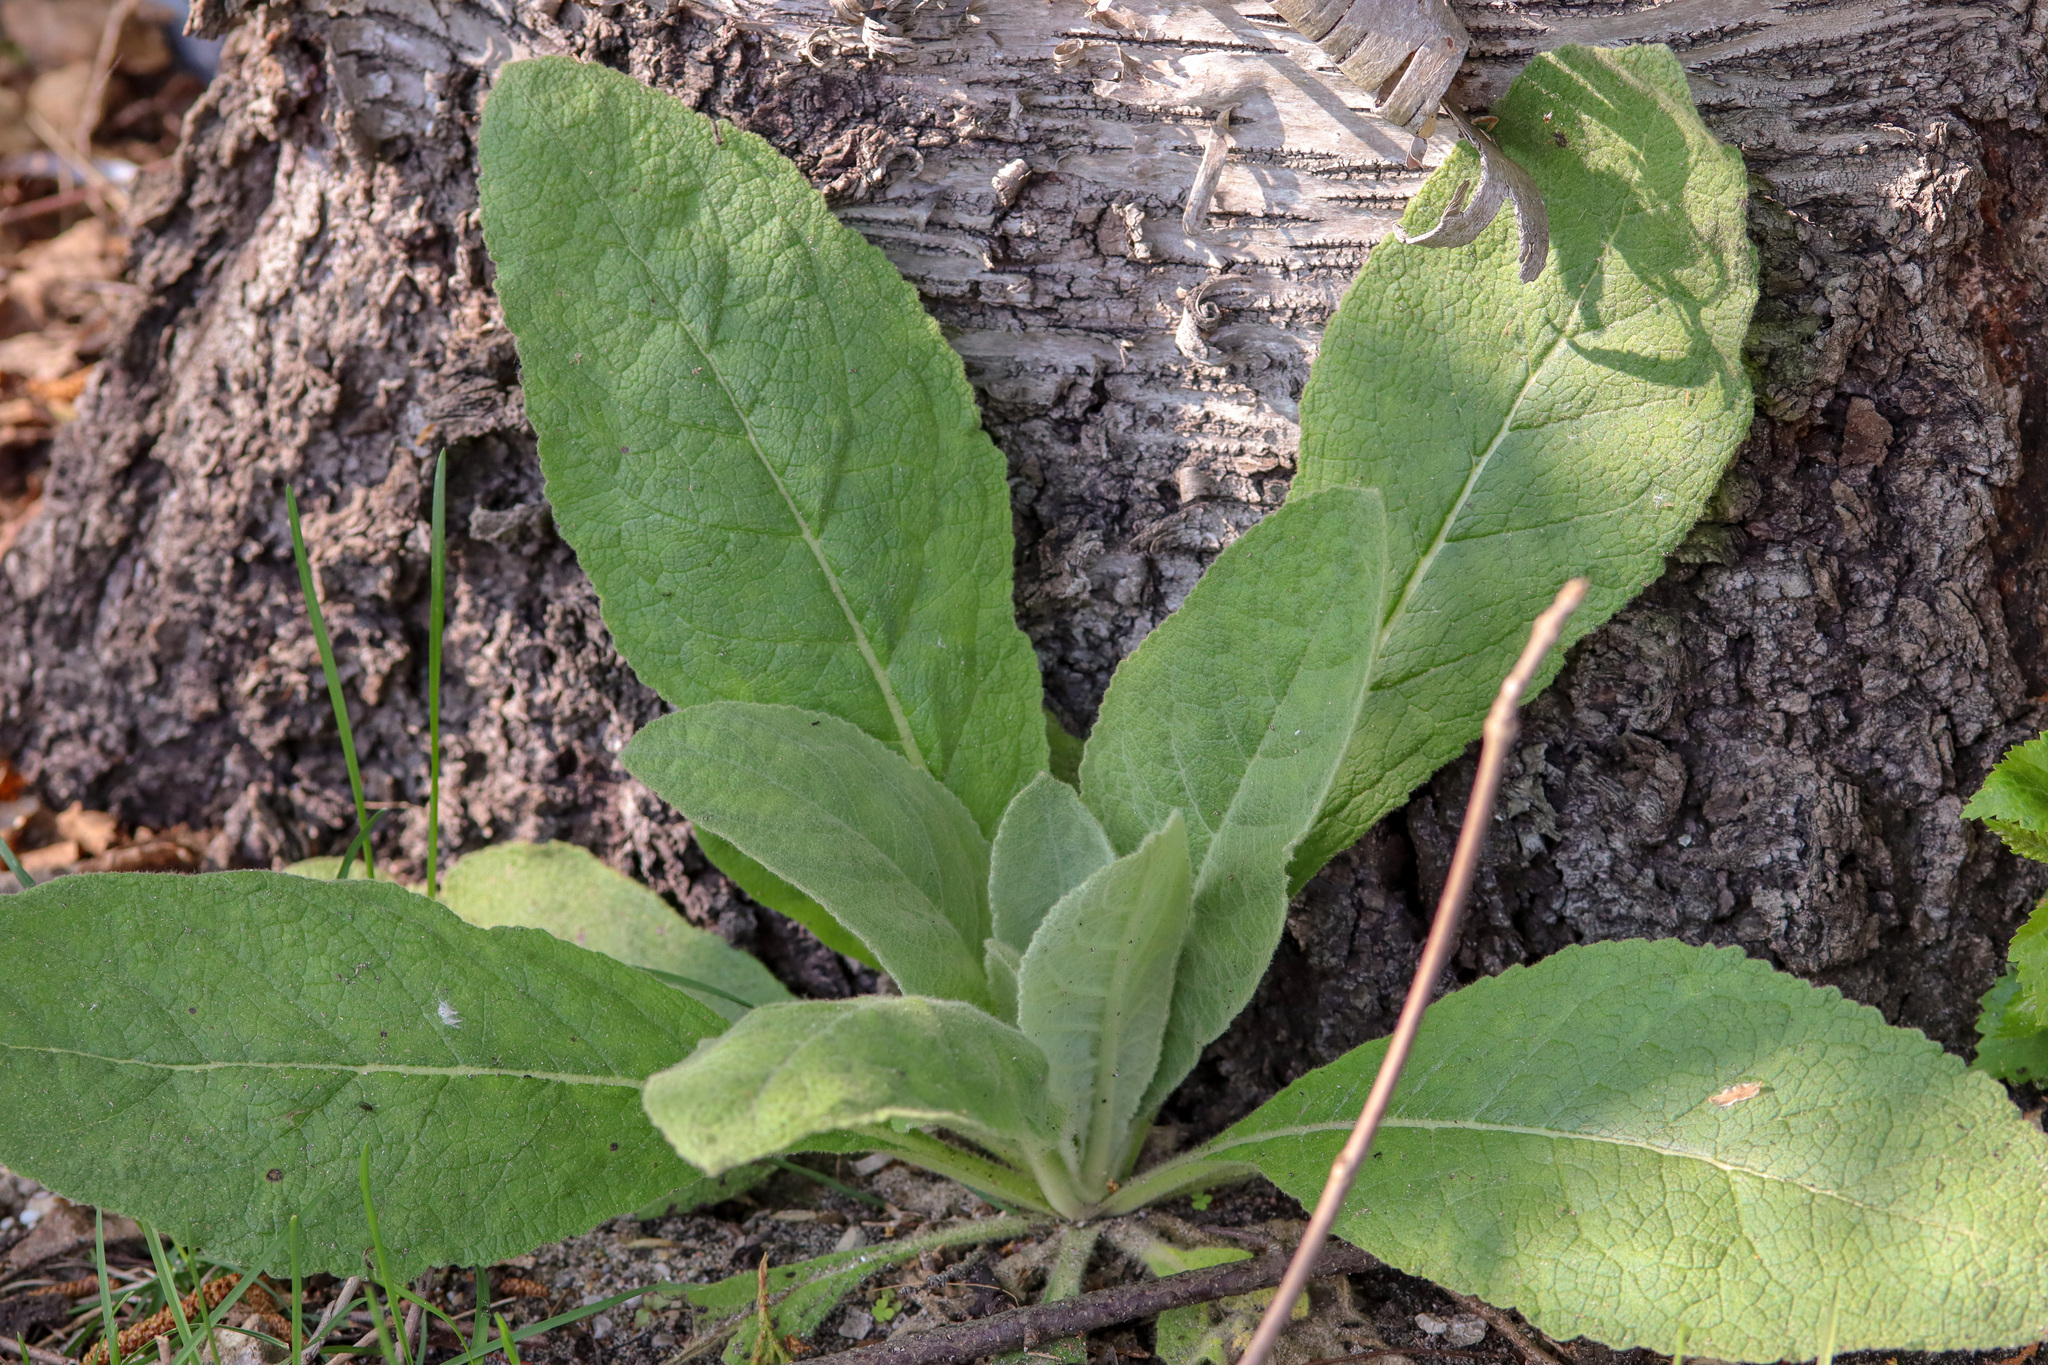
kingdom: Plantae
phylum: Tracheophyta
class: Magnoliopsida
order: Lamiales
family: Scrophulariaceae
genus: Verbascum
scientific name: Verbascum thapsus
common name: Common mullein
